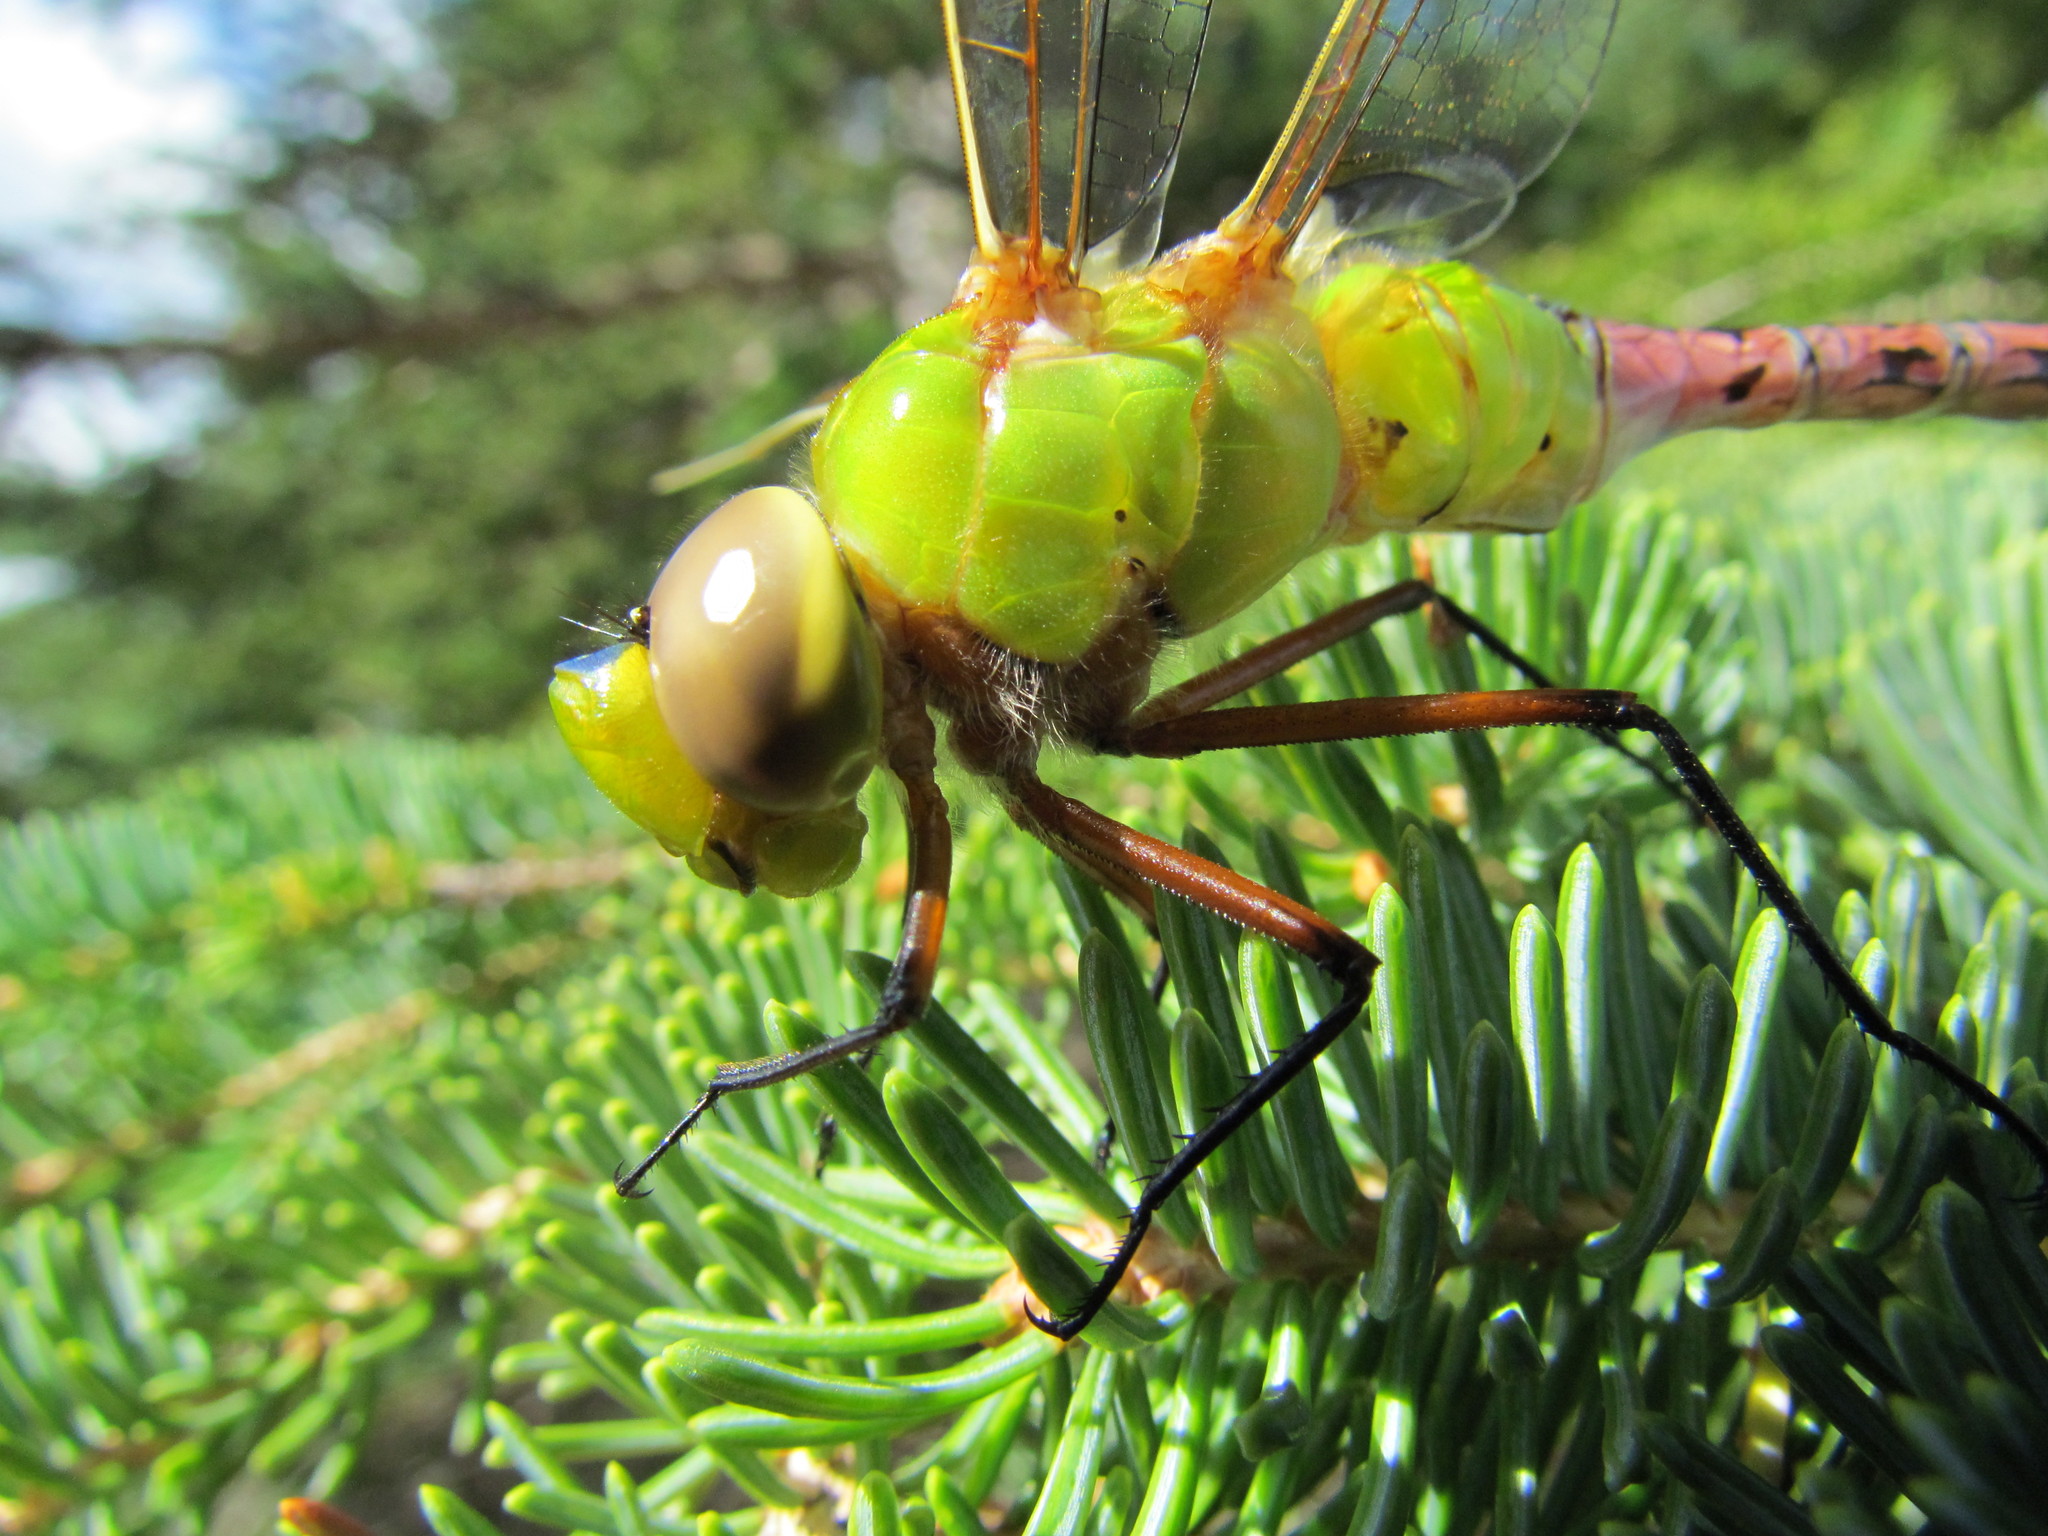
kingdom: Animalia
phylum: Arthropoda
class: Insecta
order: Odonata
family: Aeshnidae
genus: Anax
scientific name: Anax junius
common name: Common green darner
